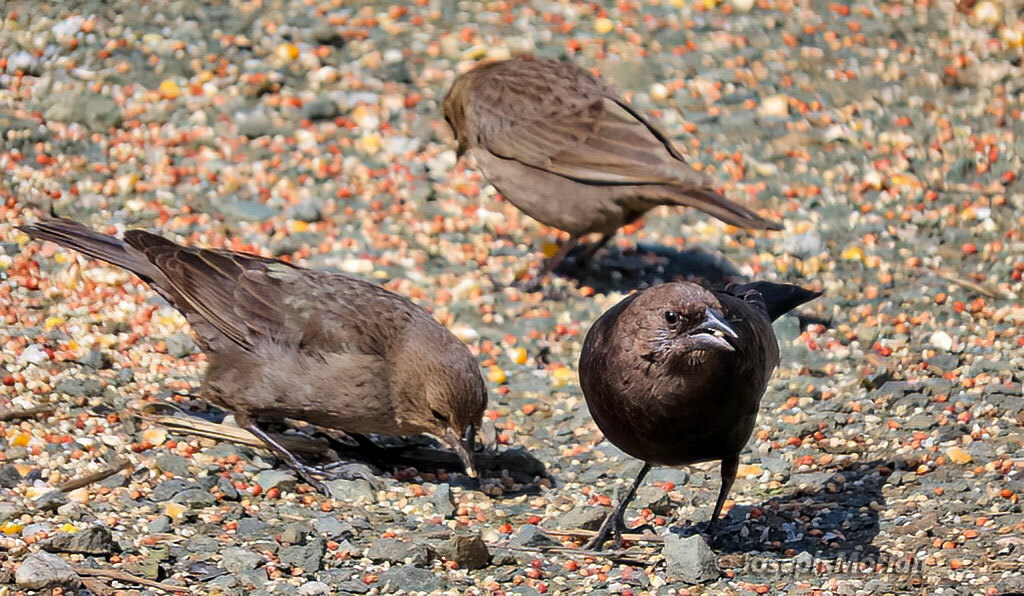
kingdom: Animalia
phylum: Chordata
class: Aves
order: Passeriformes
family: Icteridae
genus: Molothrus
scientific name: Molothrus ater
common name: Brown-headed cowbird
